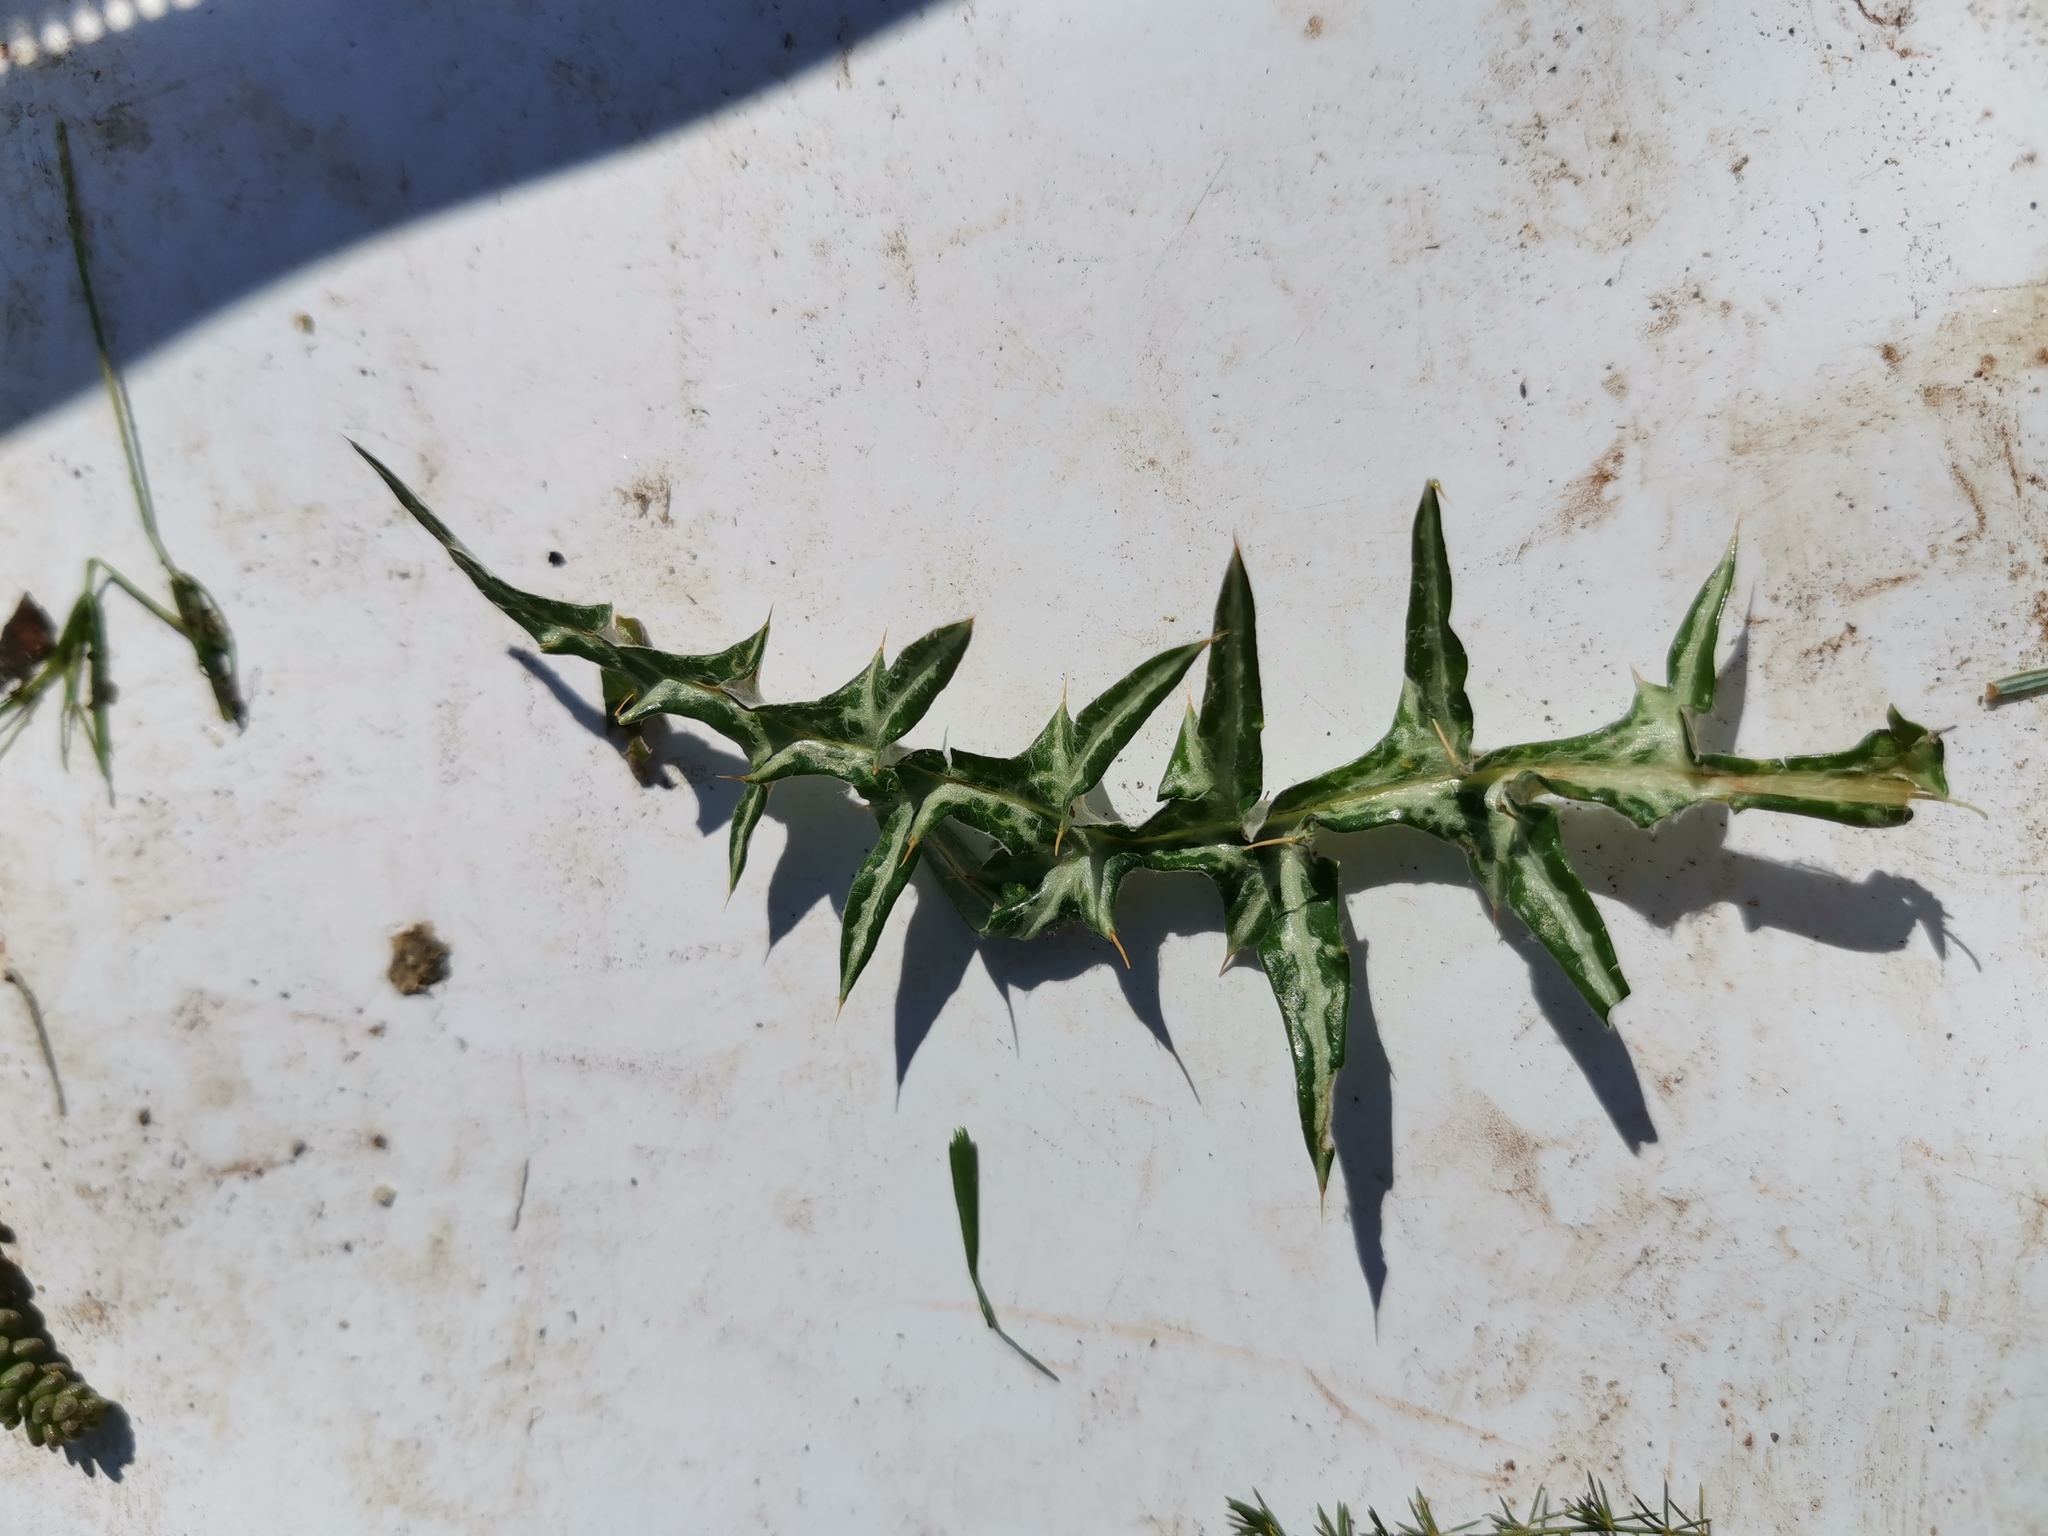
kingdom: Plantae
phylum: Tracheophyta
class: Magnoliopsida
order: Asterales
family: Asteraceae
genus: Galactites
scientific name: Galactites tomentosa
